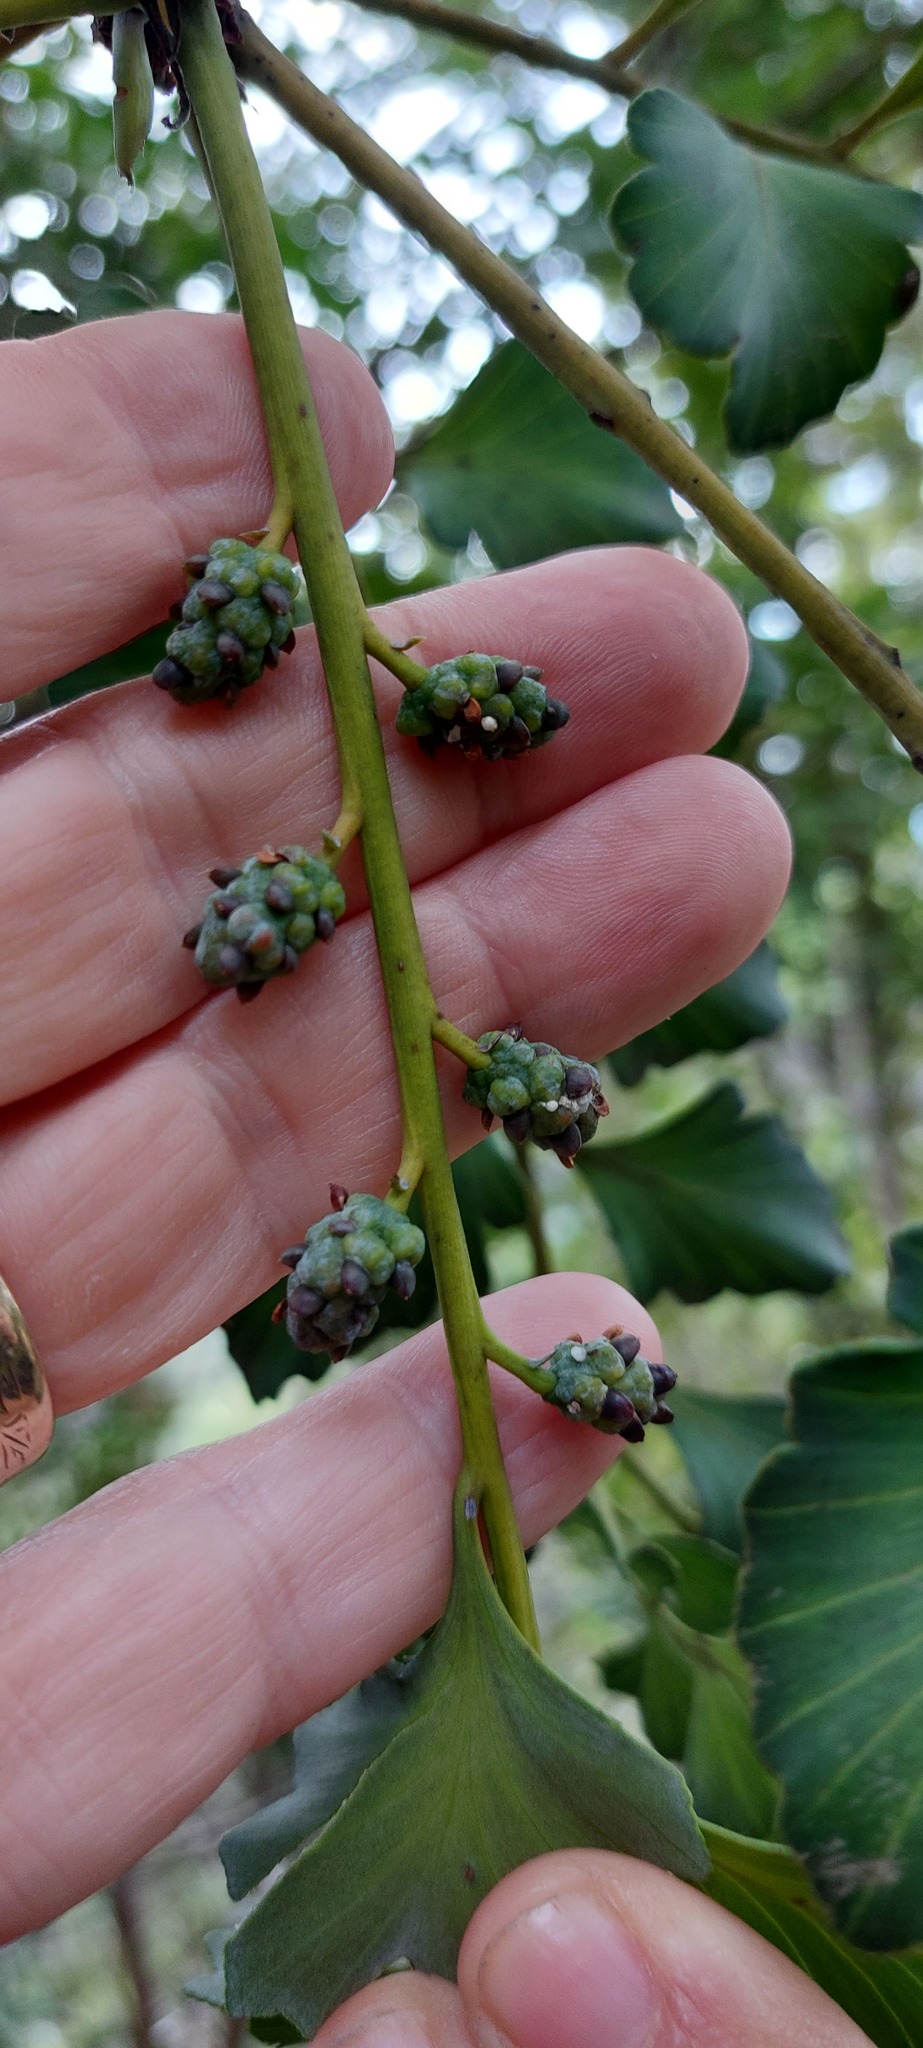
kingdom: Plantae
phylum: Tracheophyta
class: Pinopsida
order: Pinales
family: Phyllocladaceae
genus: Phyllocladus
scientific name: Phyllocladus toatoa
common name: Celery-top pine
